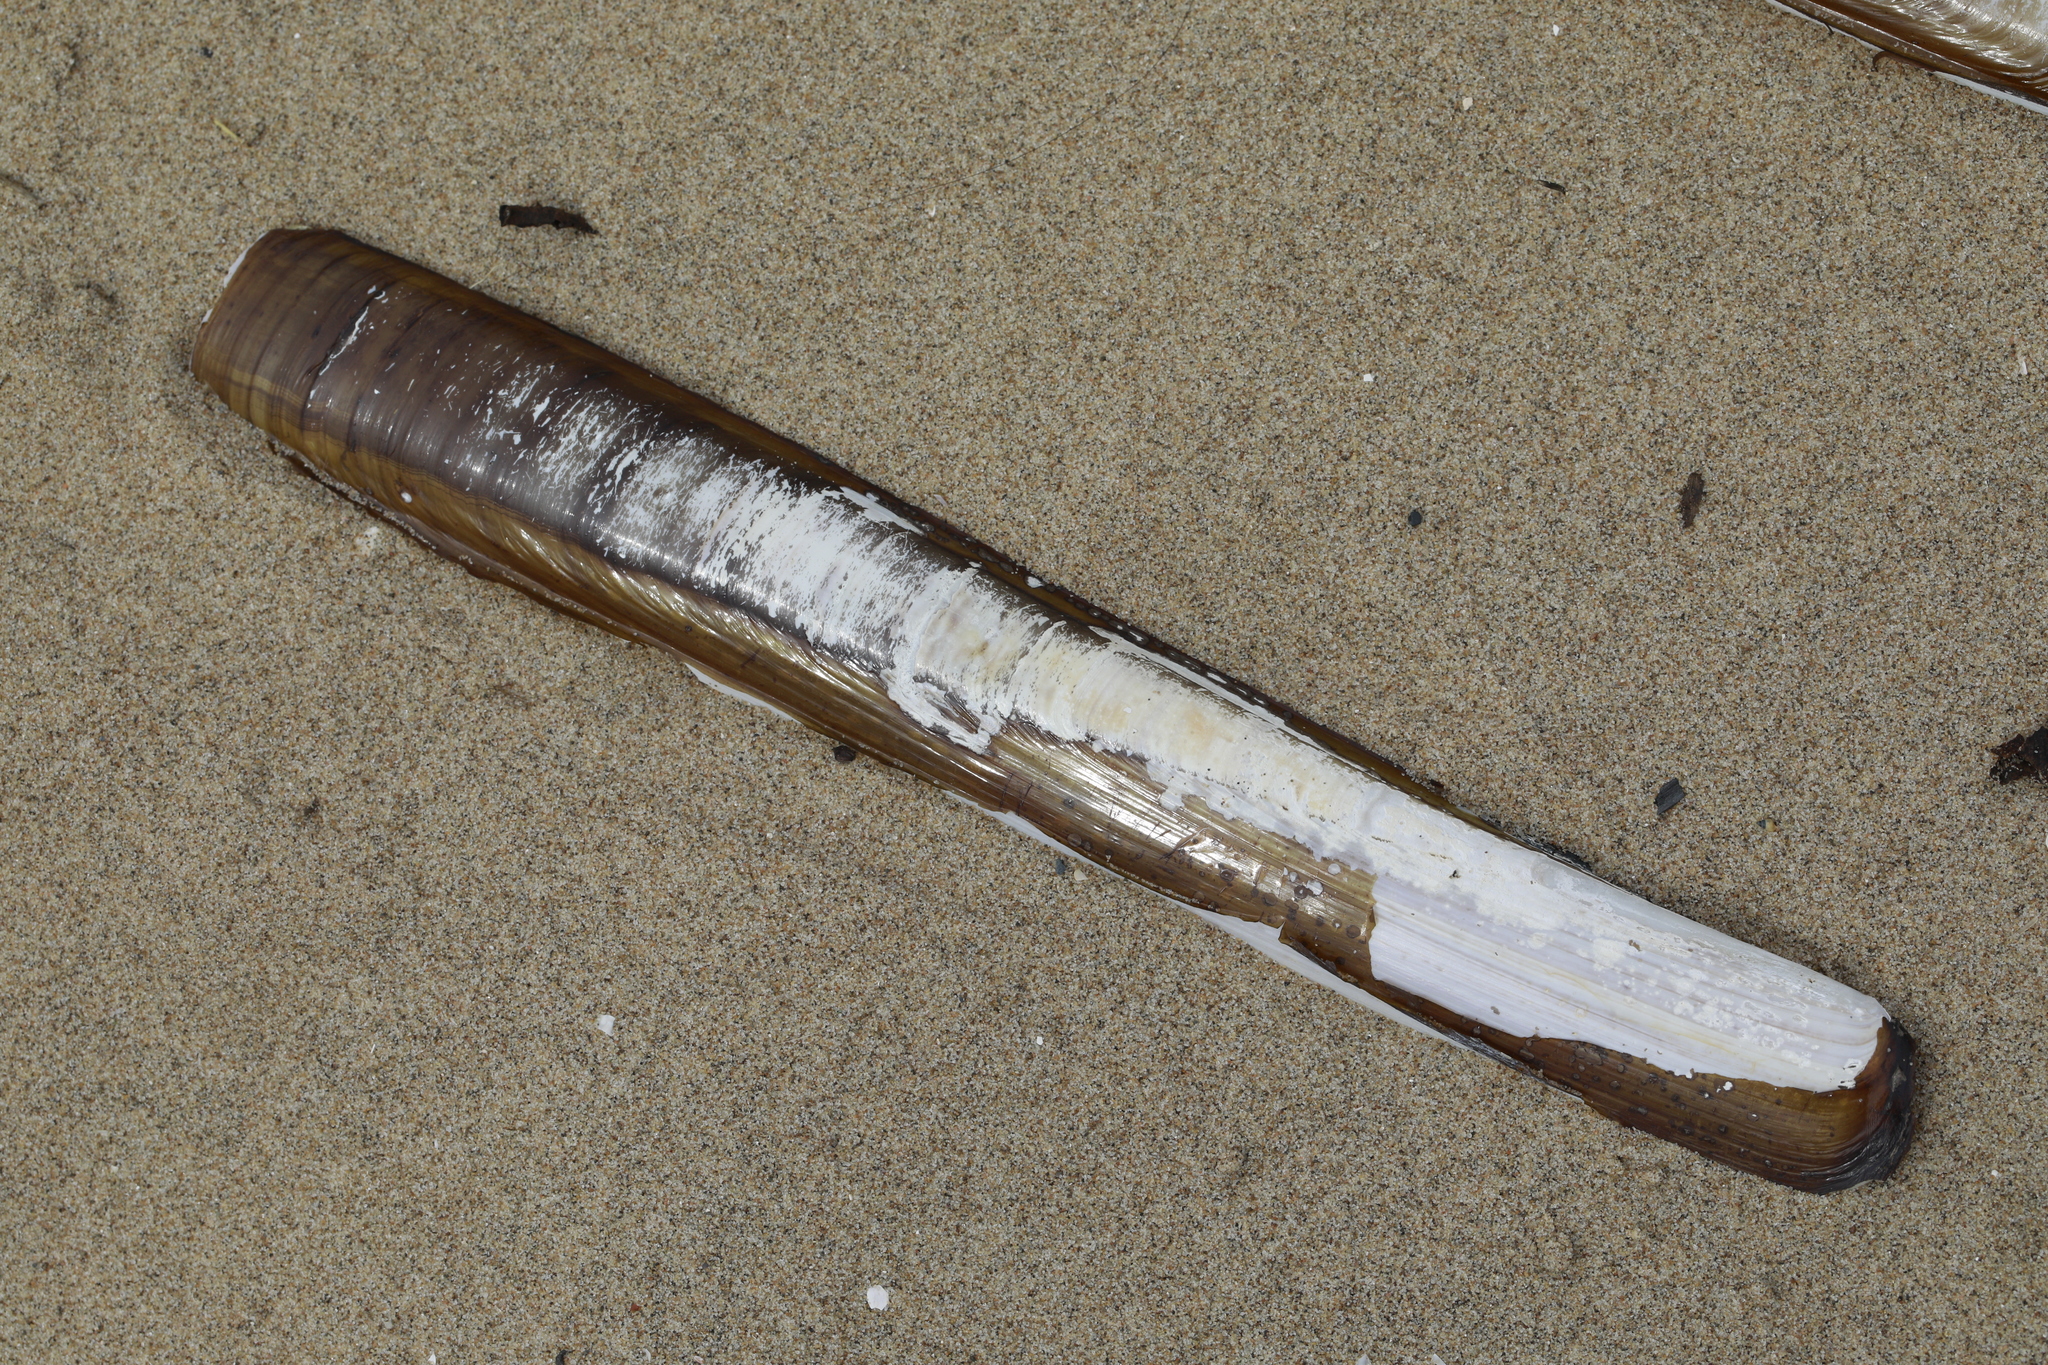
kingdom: Animalia
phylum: Mollusca
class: Bivalvia
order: Adapedonta
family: Pharidae
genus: Ensis
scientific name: Ensis siliqua
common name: Pod razor shell
